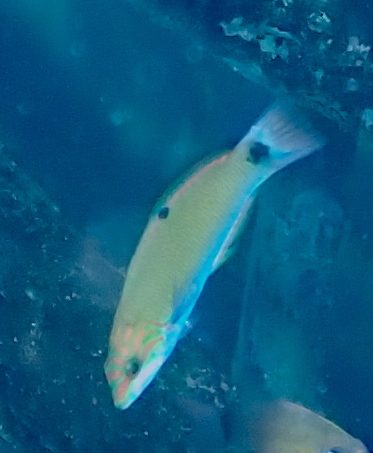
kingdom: Animalia
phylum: Chordata
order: Perciformes
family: Labridae
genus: Thalassoma
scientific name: Thalassoma lunare
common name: Blue wrasse
